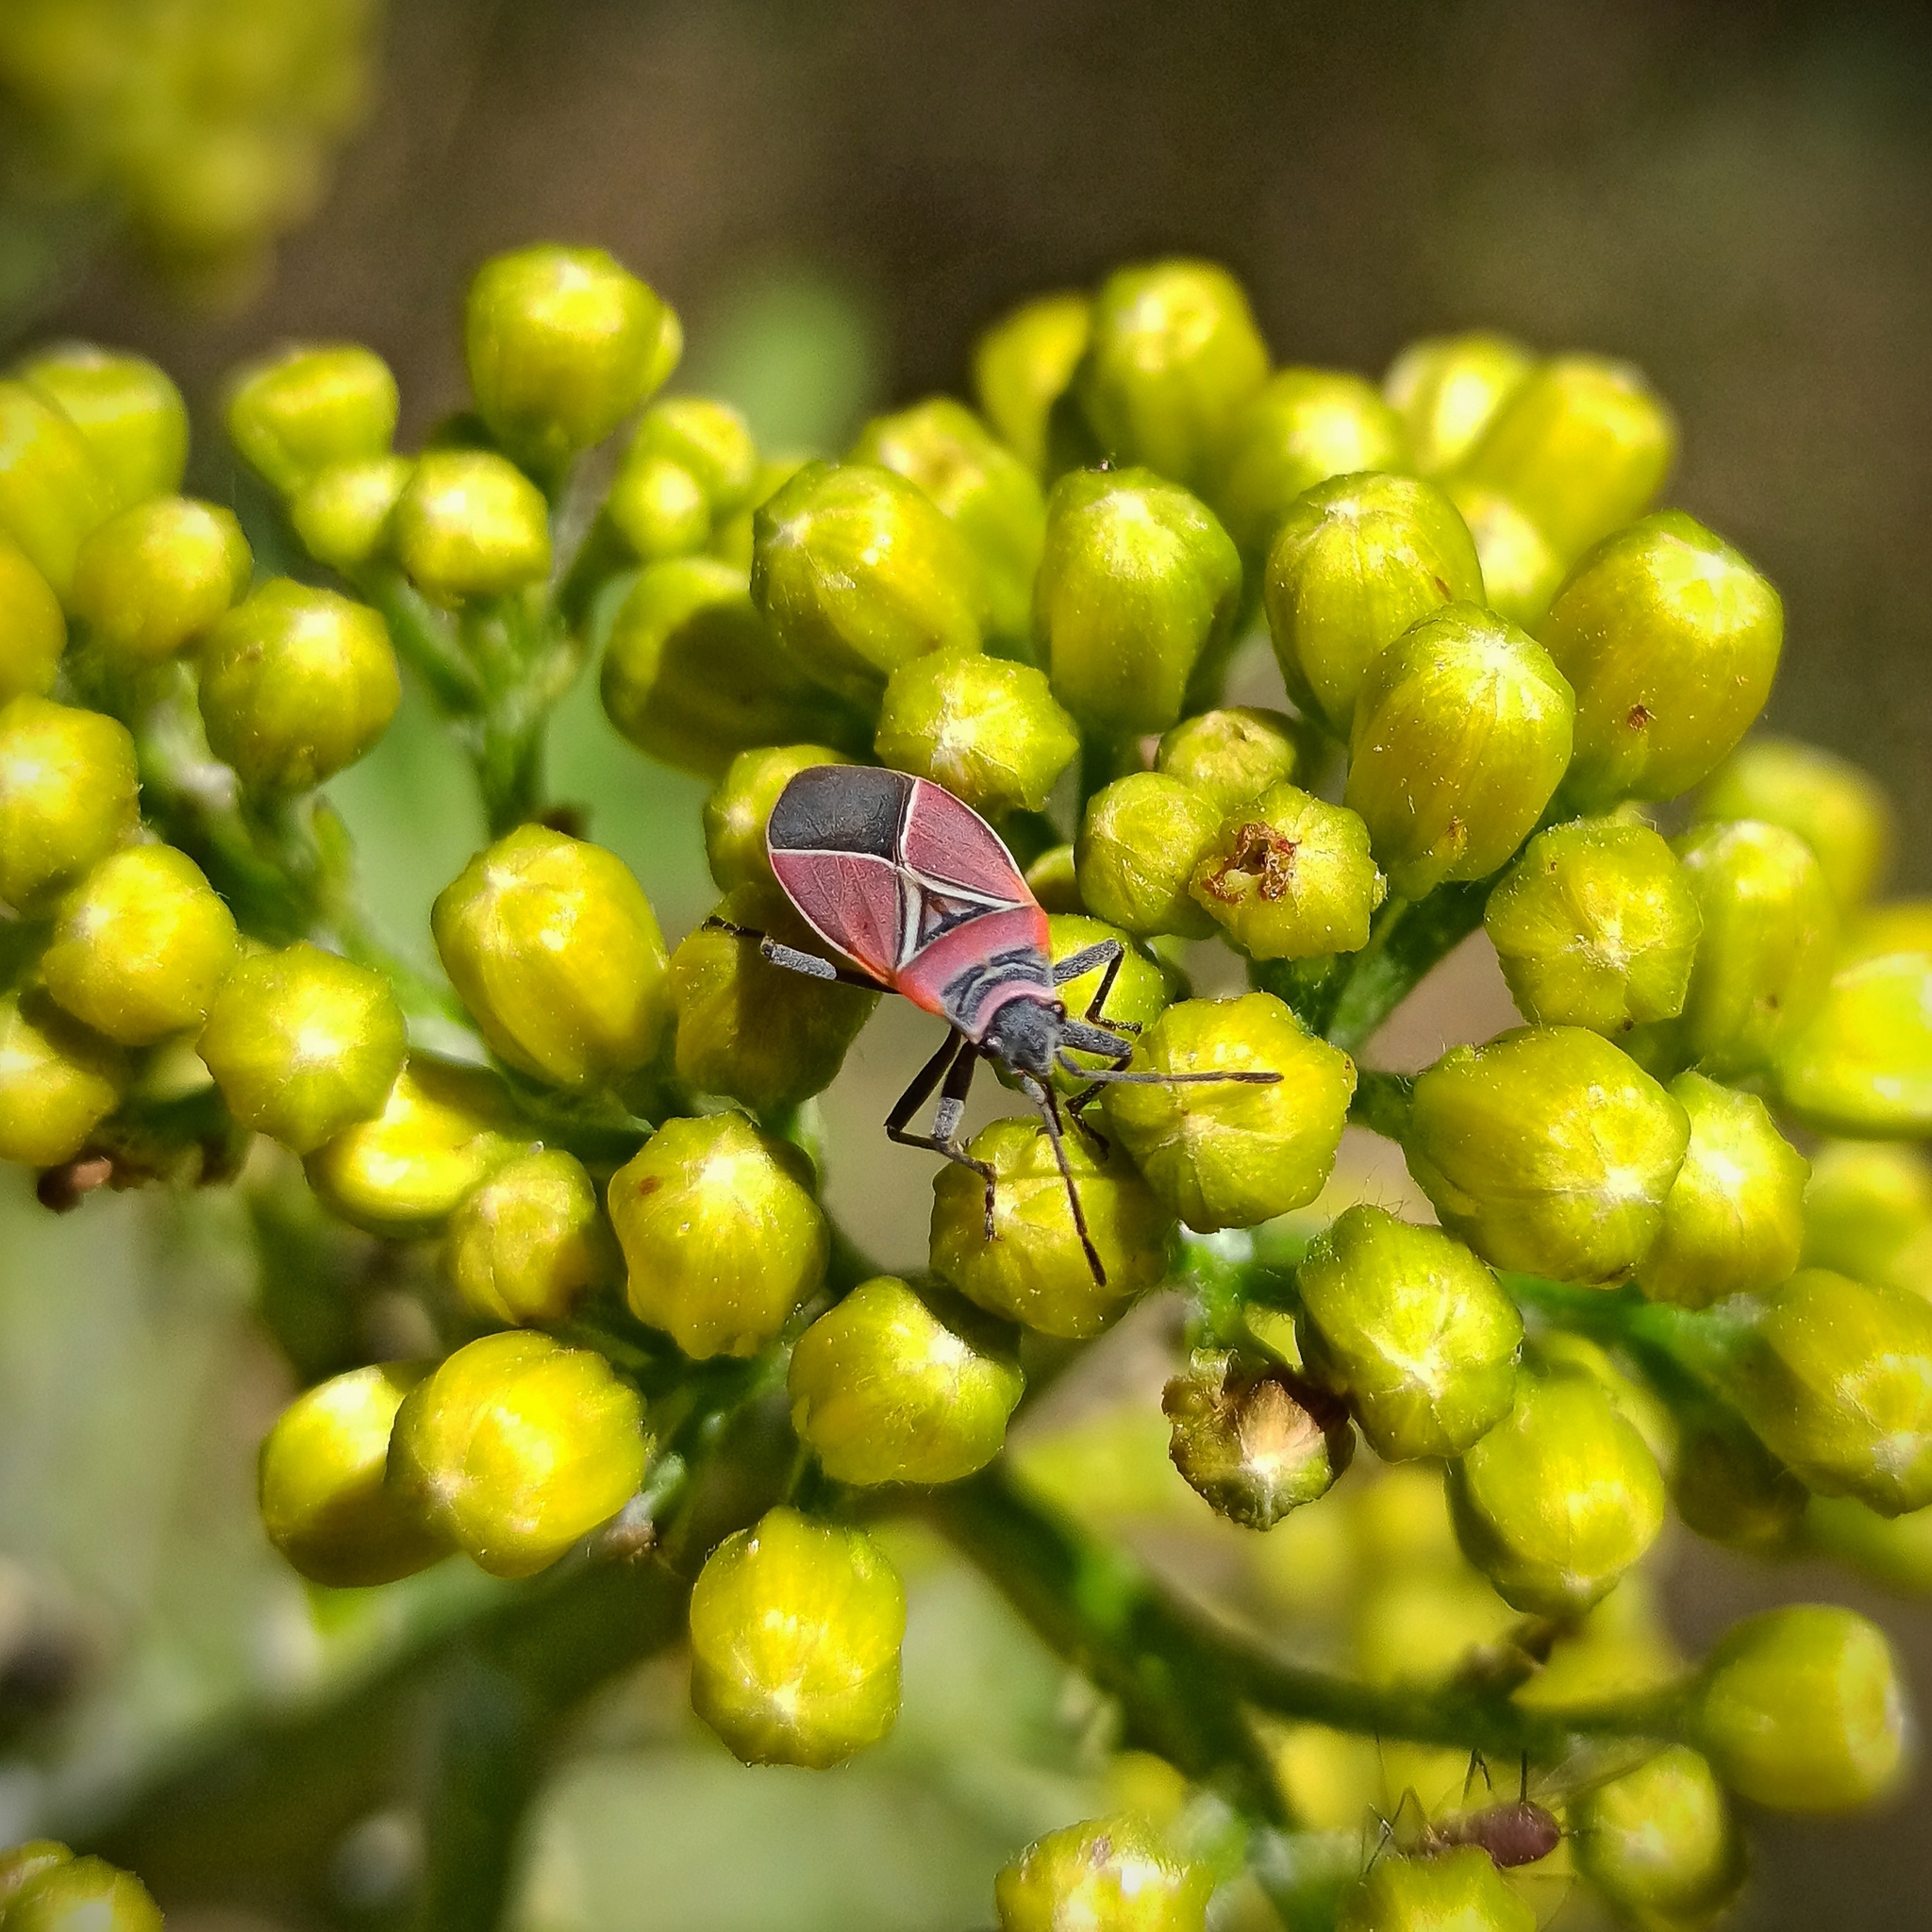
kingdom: Animalia
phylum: Arthropoda
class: Insecta
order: Hemiptera
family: Lygaeidae
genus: Neacoryphus
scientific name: Neacoryphus bicrucis
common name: Lygaeid bug
